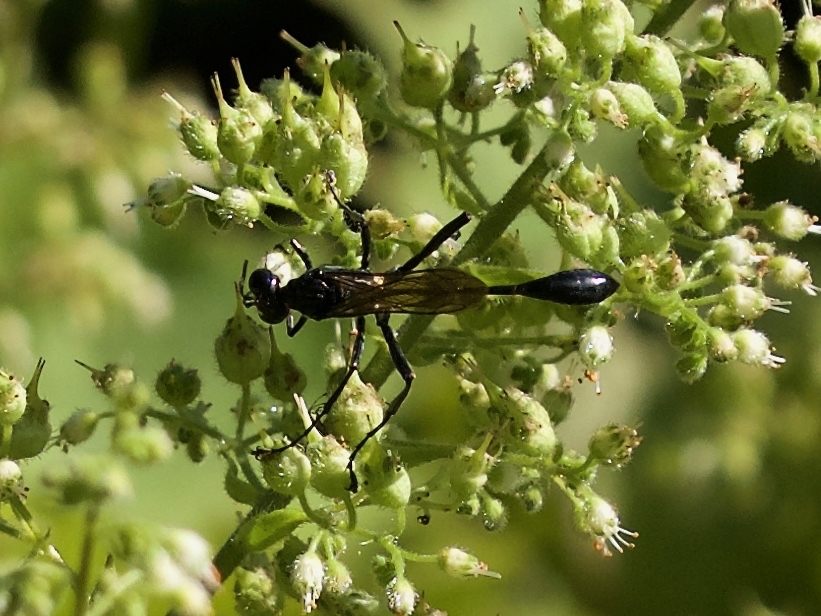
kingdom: Animalia
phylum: Arthropoda
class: Insecta
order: Hymenoptera
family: Sphecidae
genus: Eremnophila
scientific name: Eremnophila aureonotata
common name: Gold-marked thread-waisted wasp
